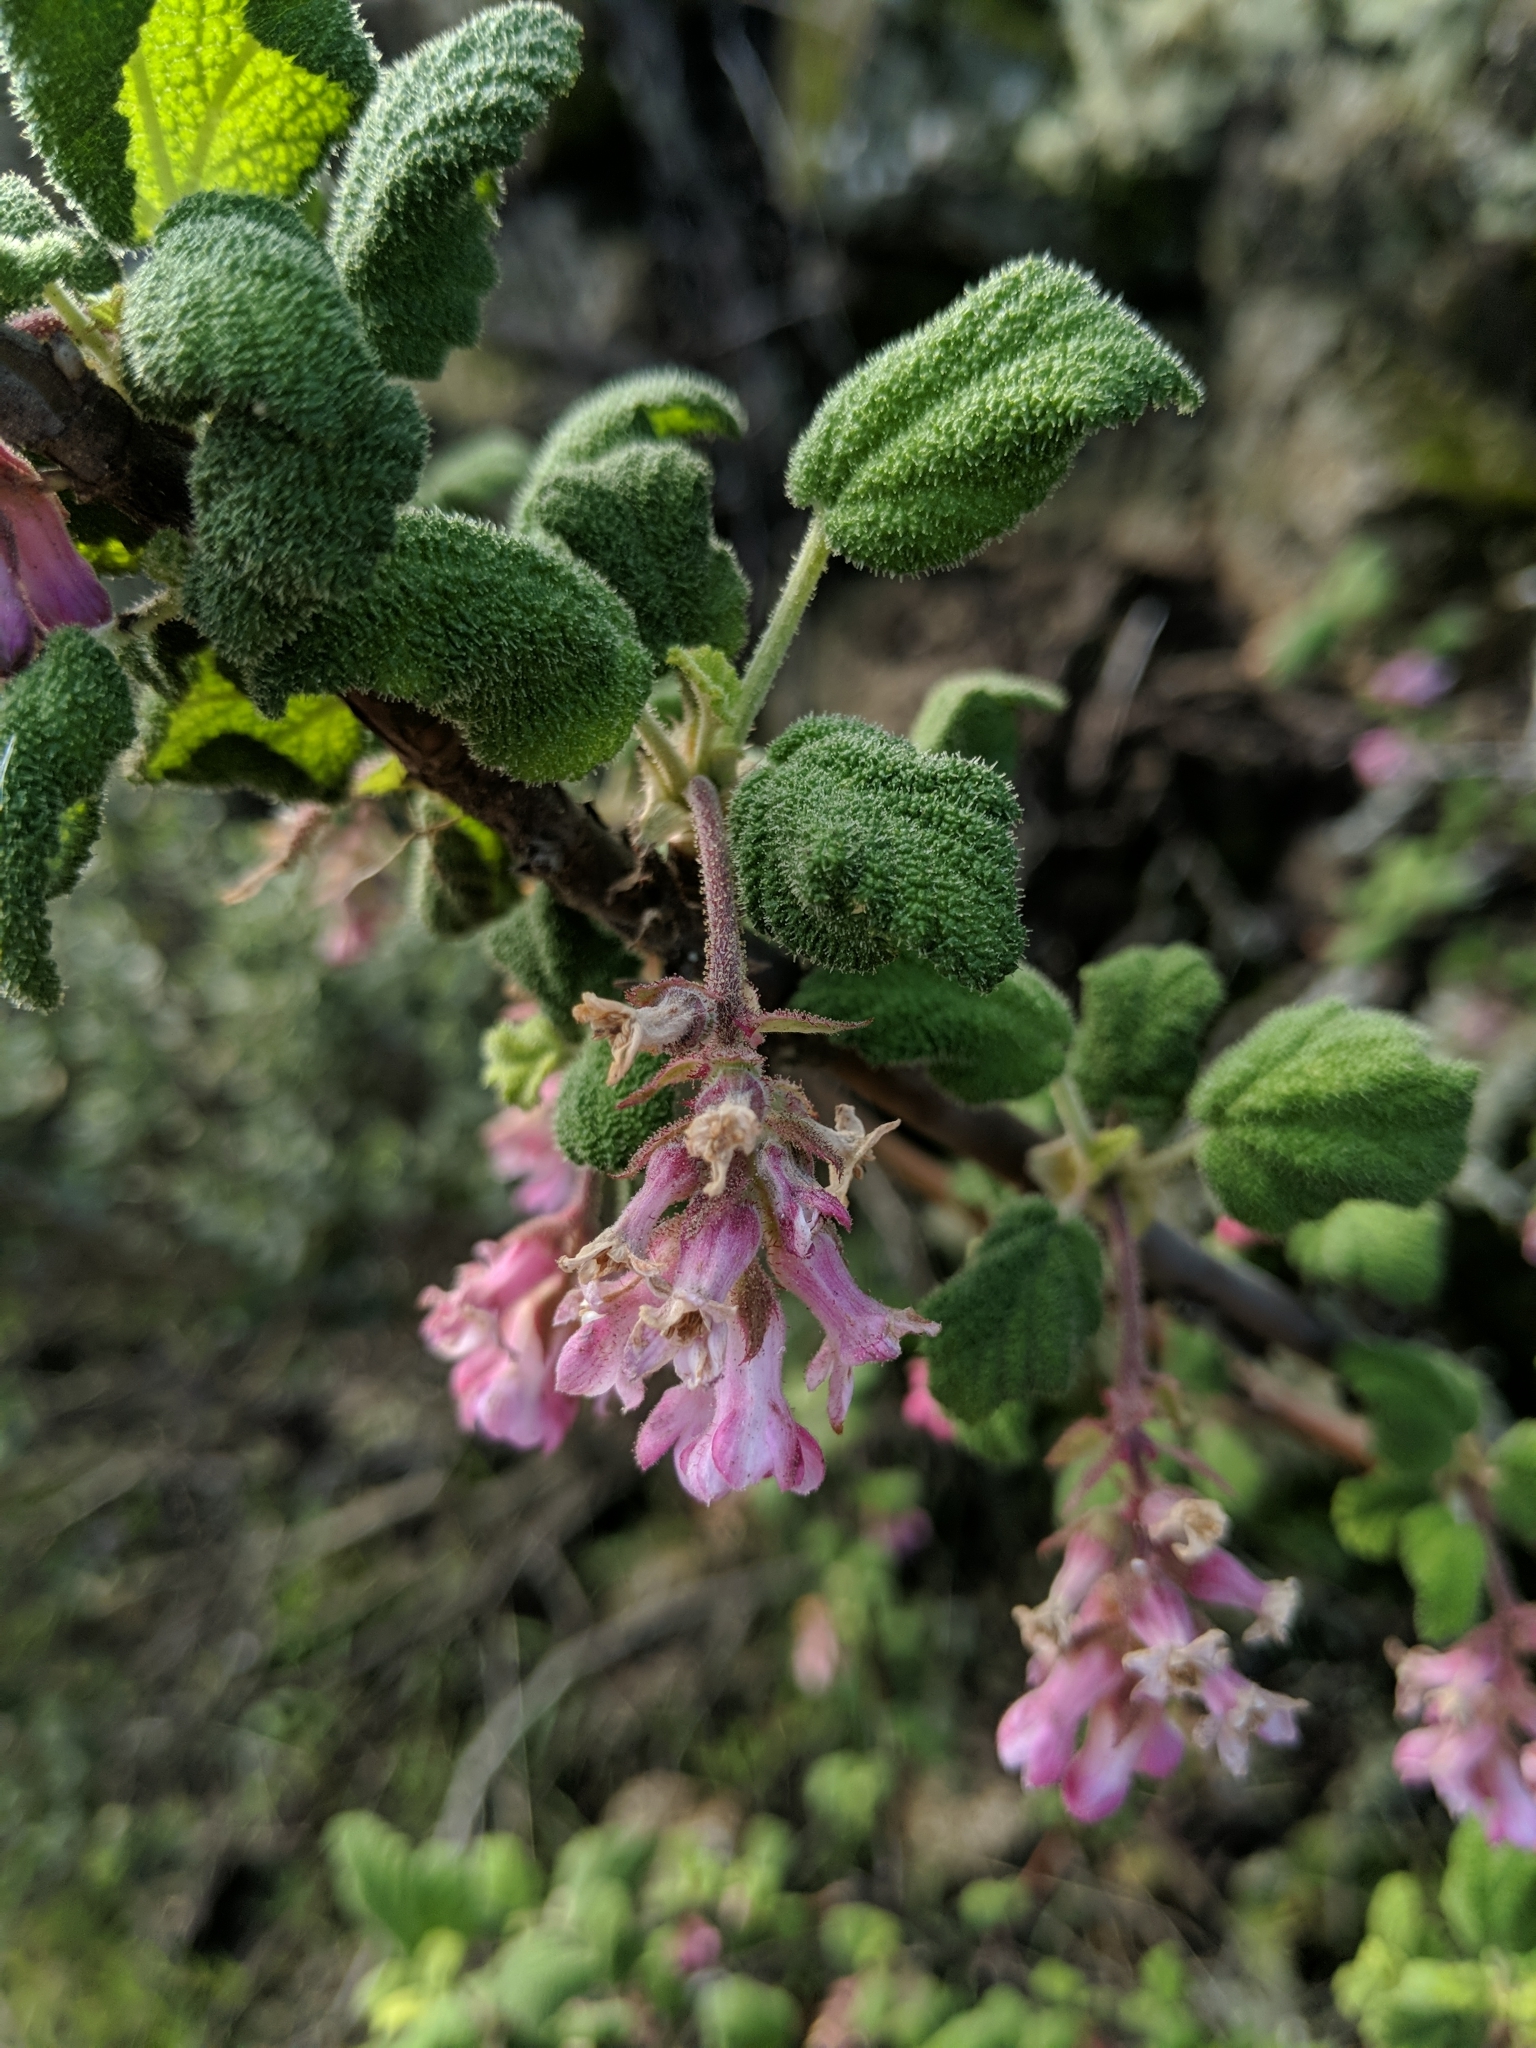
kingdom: Plantae
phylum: Tracheophyta
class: Magnoliopsida
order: Saxifragales
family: Grossulariaceae
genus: Ribes
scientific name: Ribes malvaceum
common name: Chaparral currant
